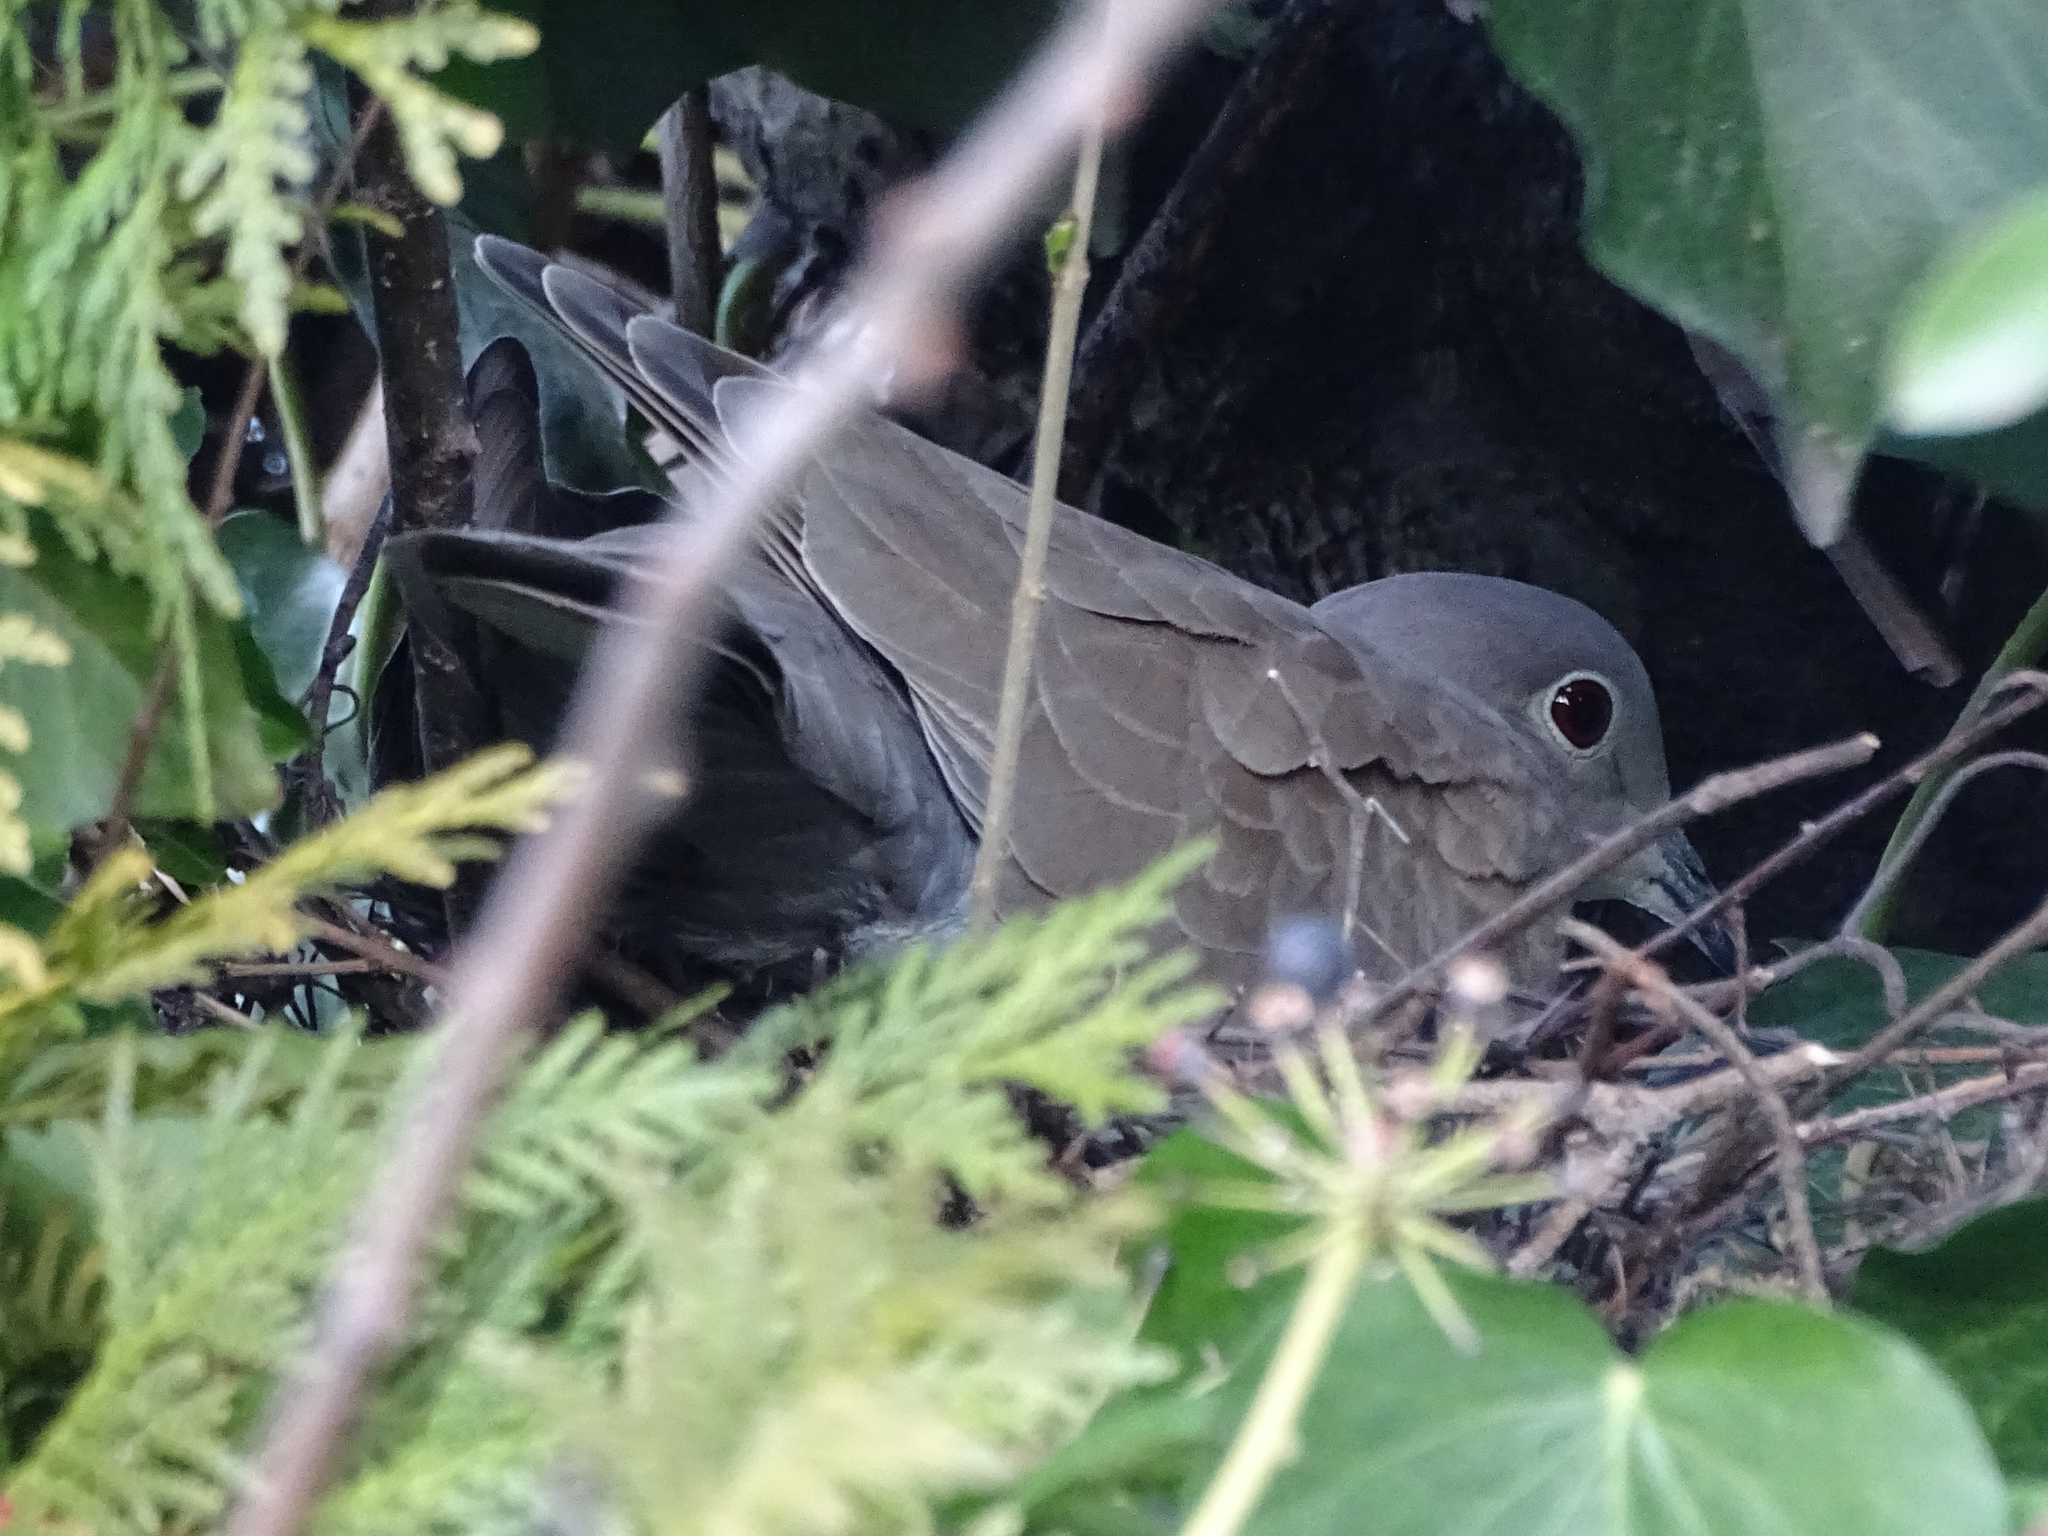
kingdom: Animalia
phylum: Chordata
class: Aves
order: Columbiformes
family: Columbidae
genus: Streptopelia
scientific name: Streptopelia decaocto
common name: Eurasian collared dove
